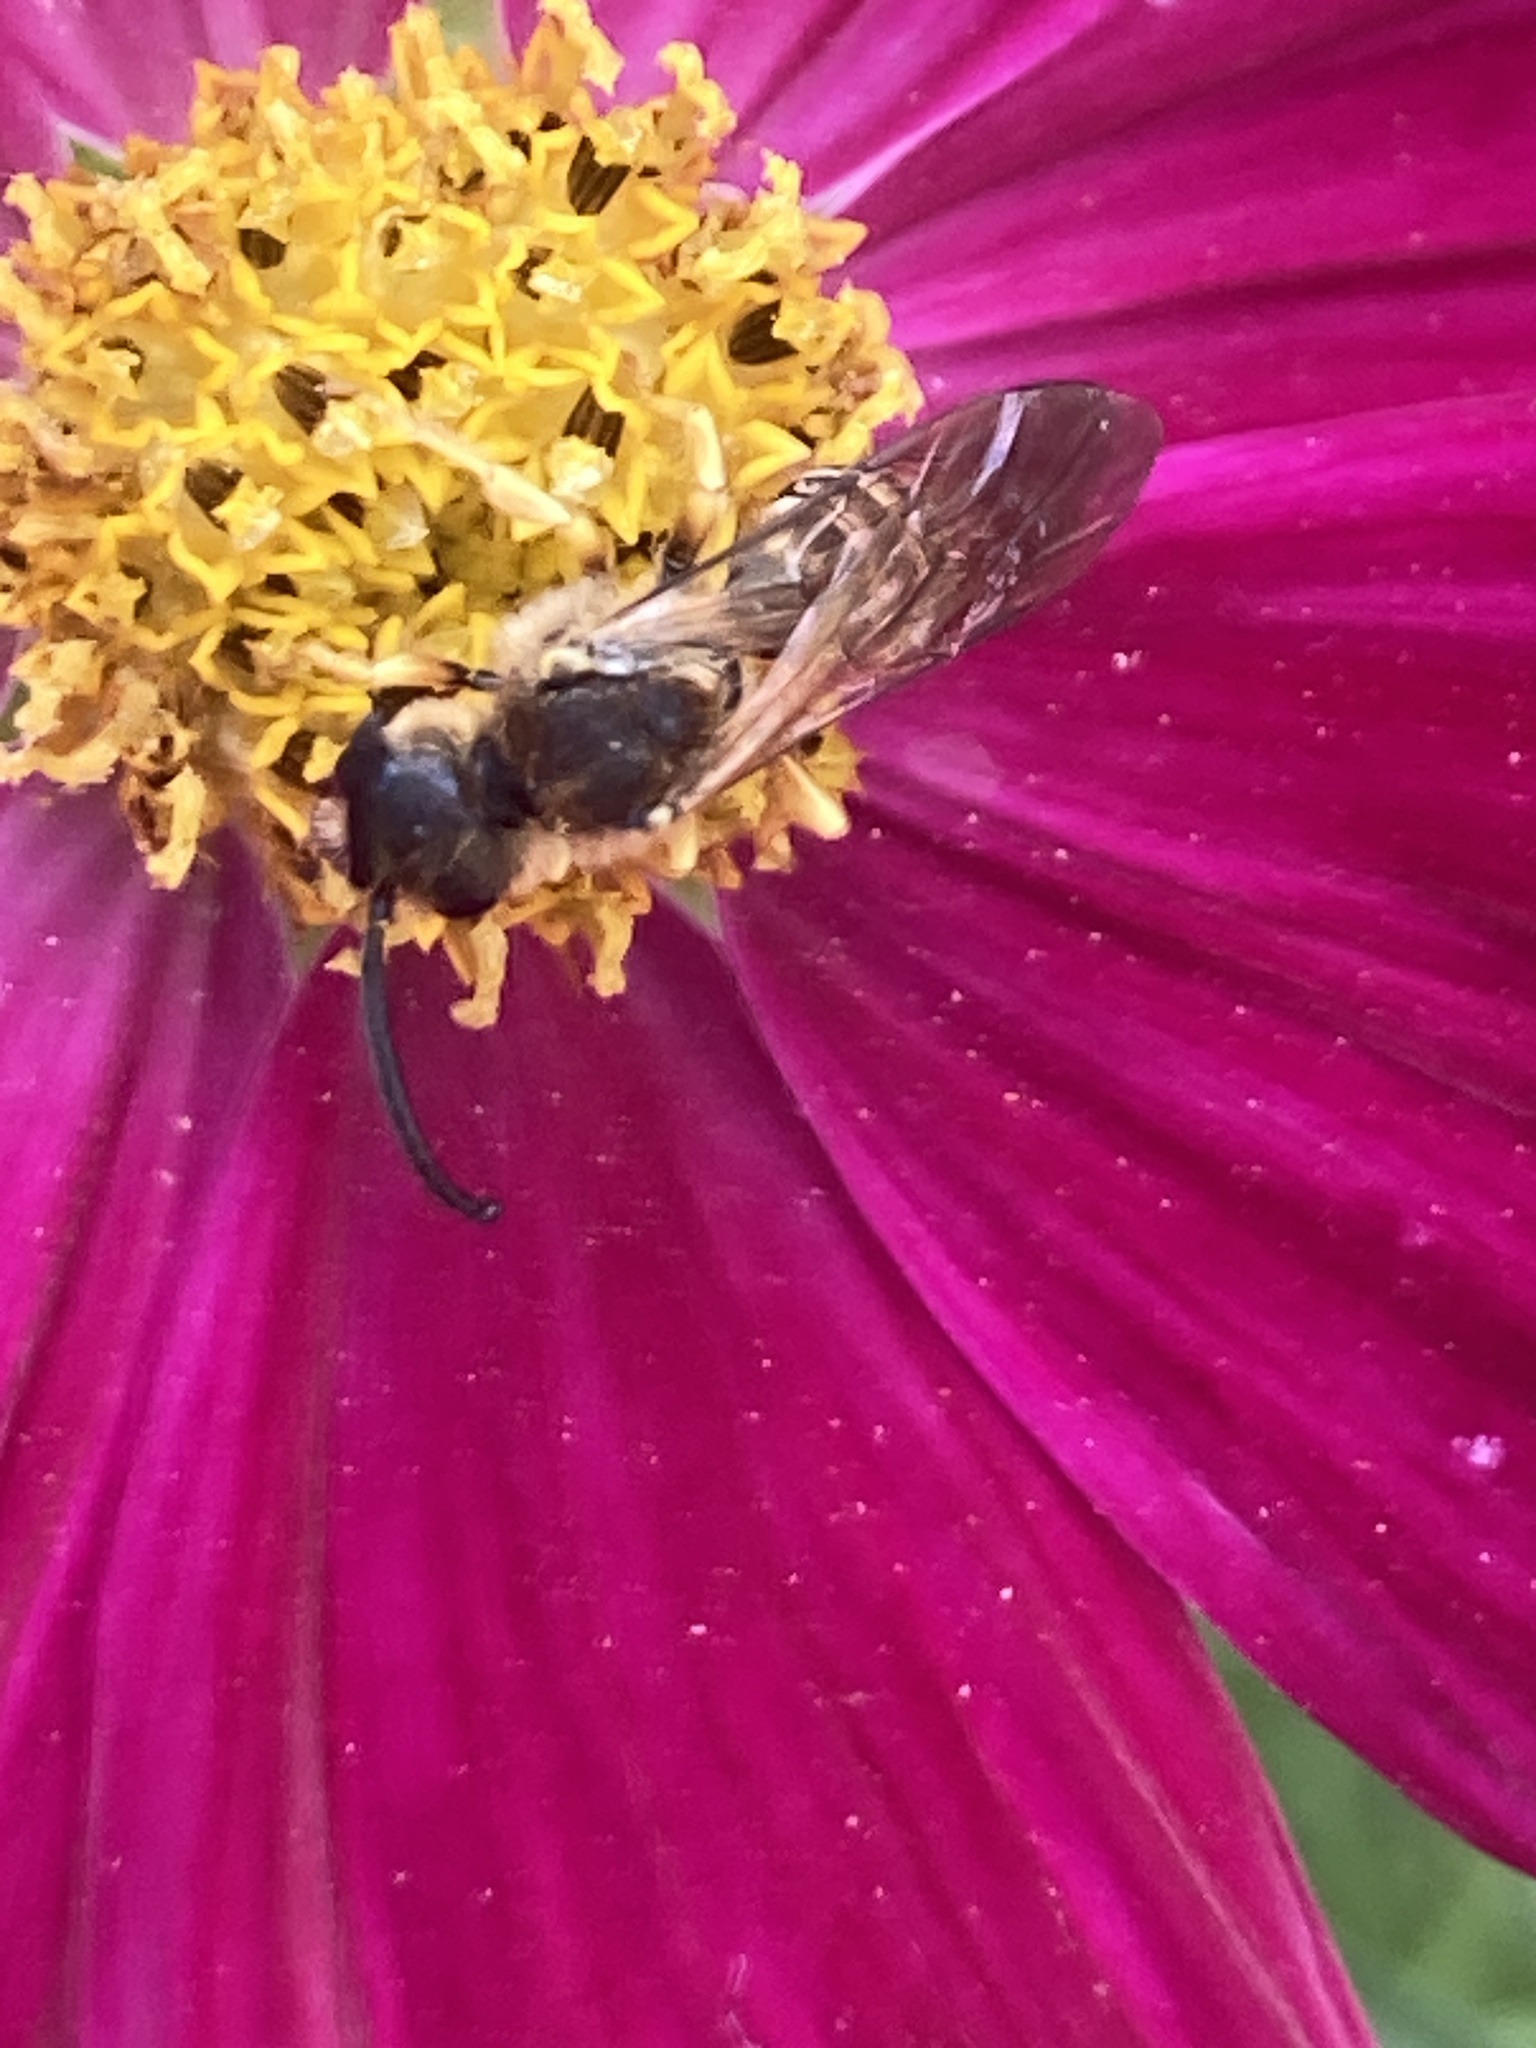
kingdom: Animalia
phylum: Arthropoda
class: Insecta
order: Hymenoptera
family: Halictidae
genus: Halictus
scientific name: Halictus scabiosae
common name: Great banded furrow bee
